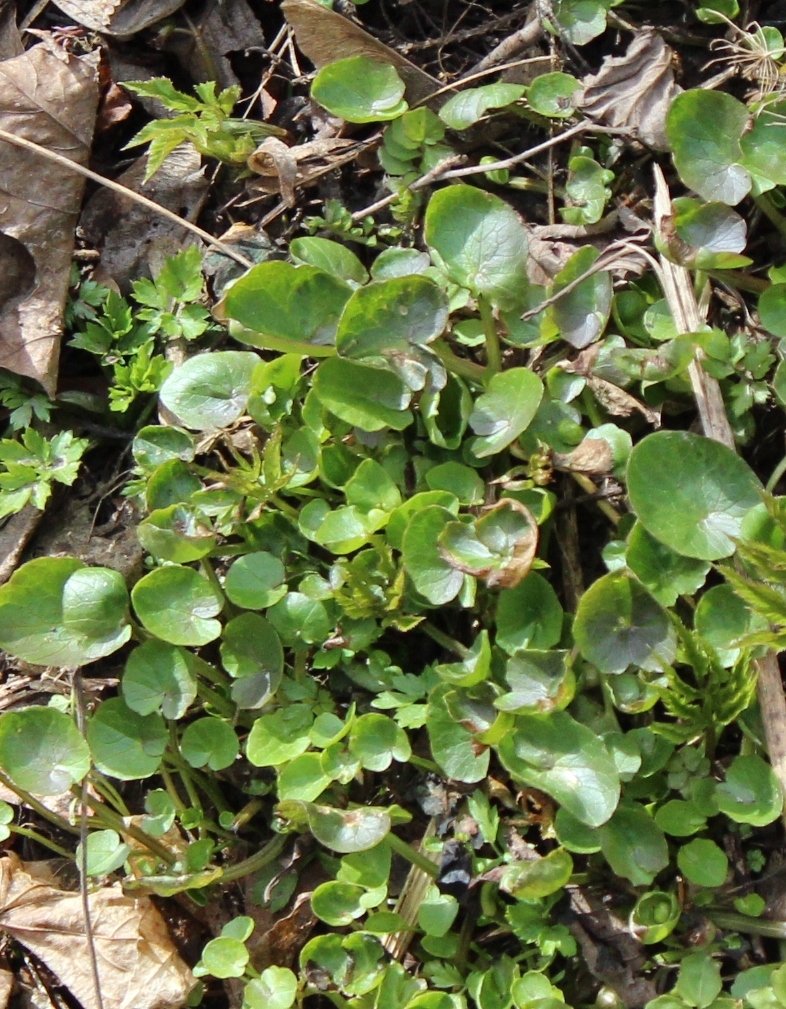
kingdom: Plantae
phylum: Tracheophyta
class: Magnoliopsida
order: Ranunculales
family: Ranunculaceae
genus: Ficaria
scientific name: Ficaria verna
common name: Lesser celandine
